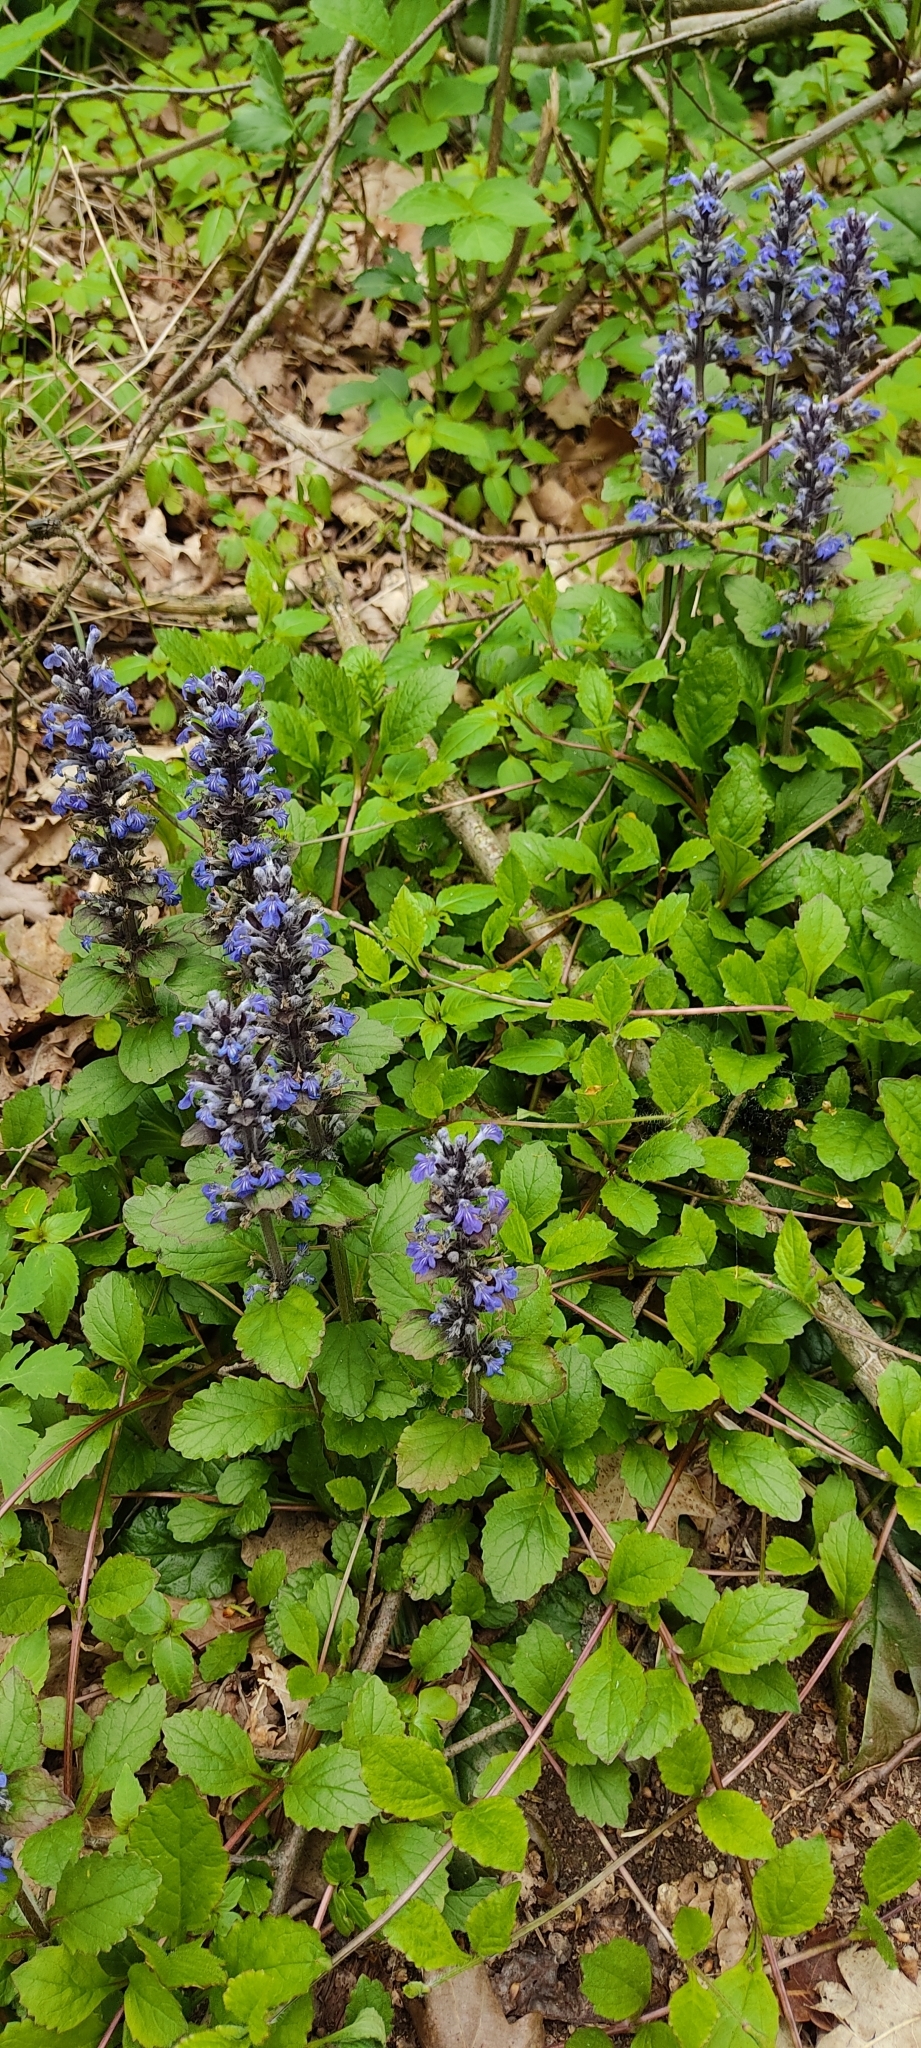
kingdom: Plantae
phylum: Tracheophyta
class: Magnoliopsida
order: Lamiales
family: Lamiaceae
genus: Ajuga
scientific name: Ajuga reptans
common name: Bugle
